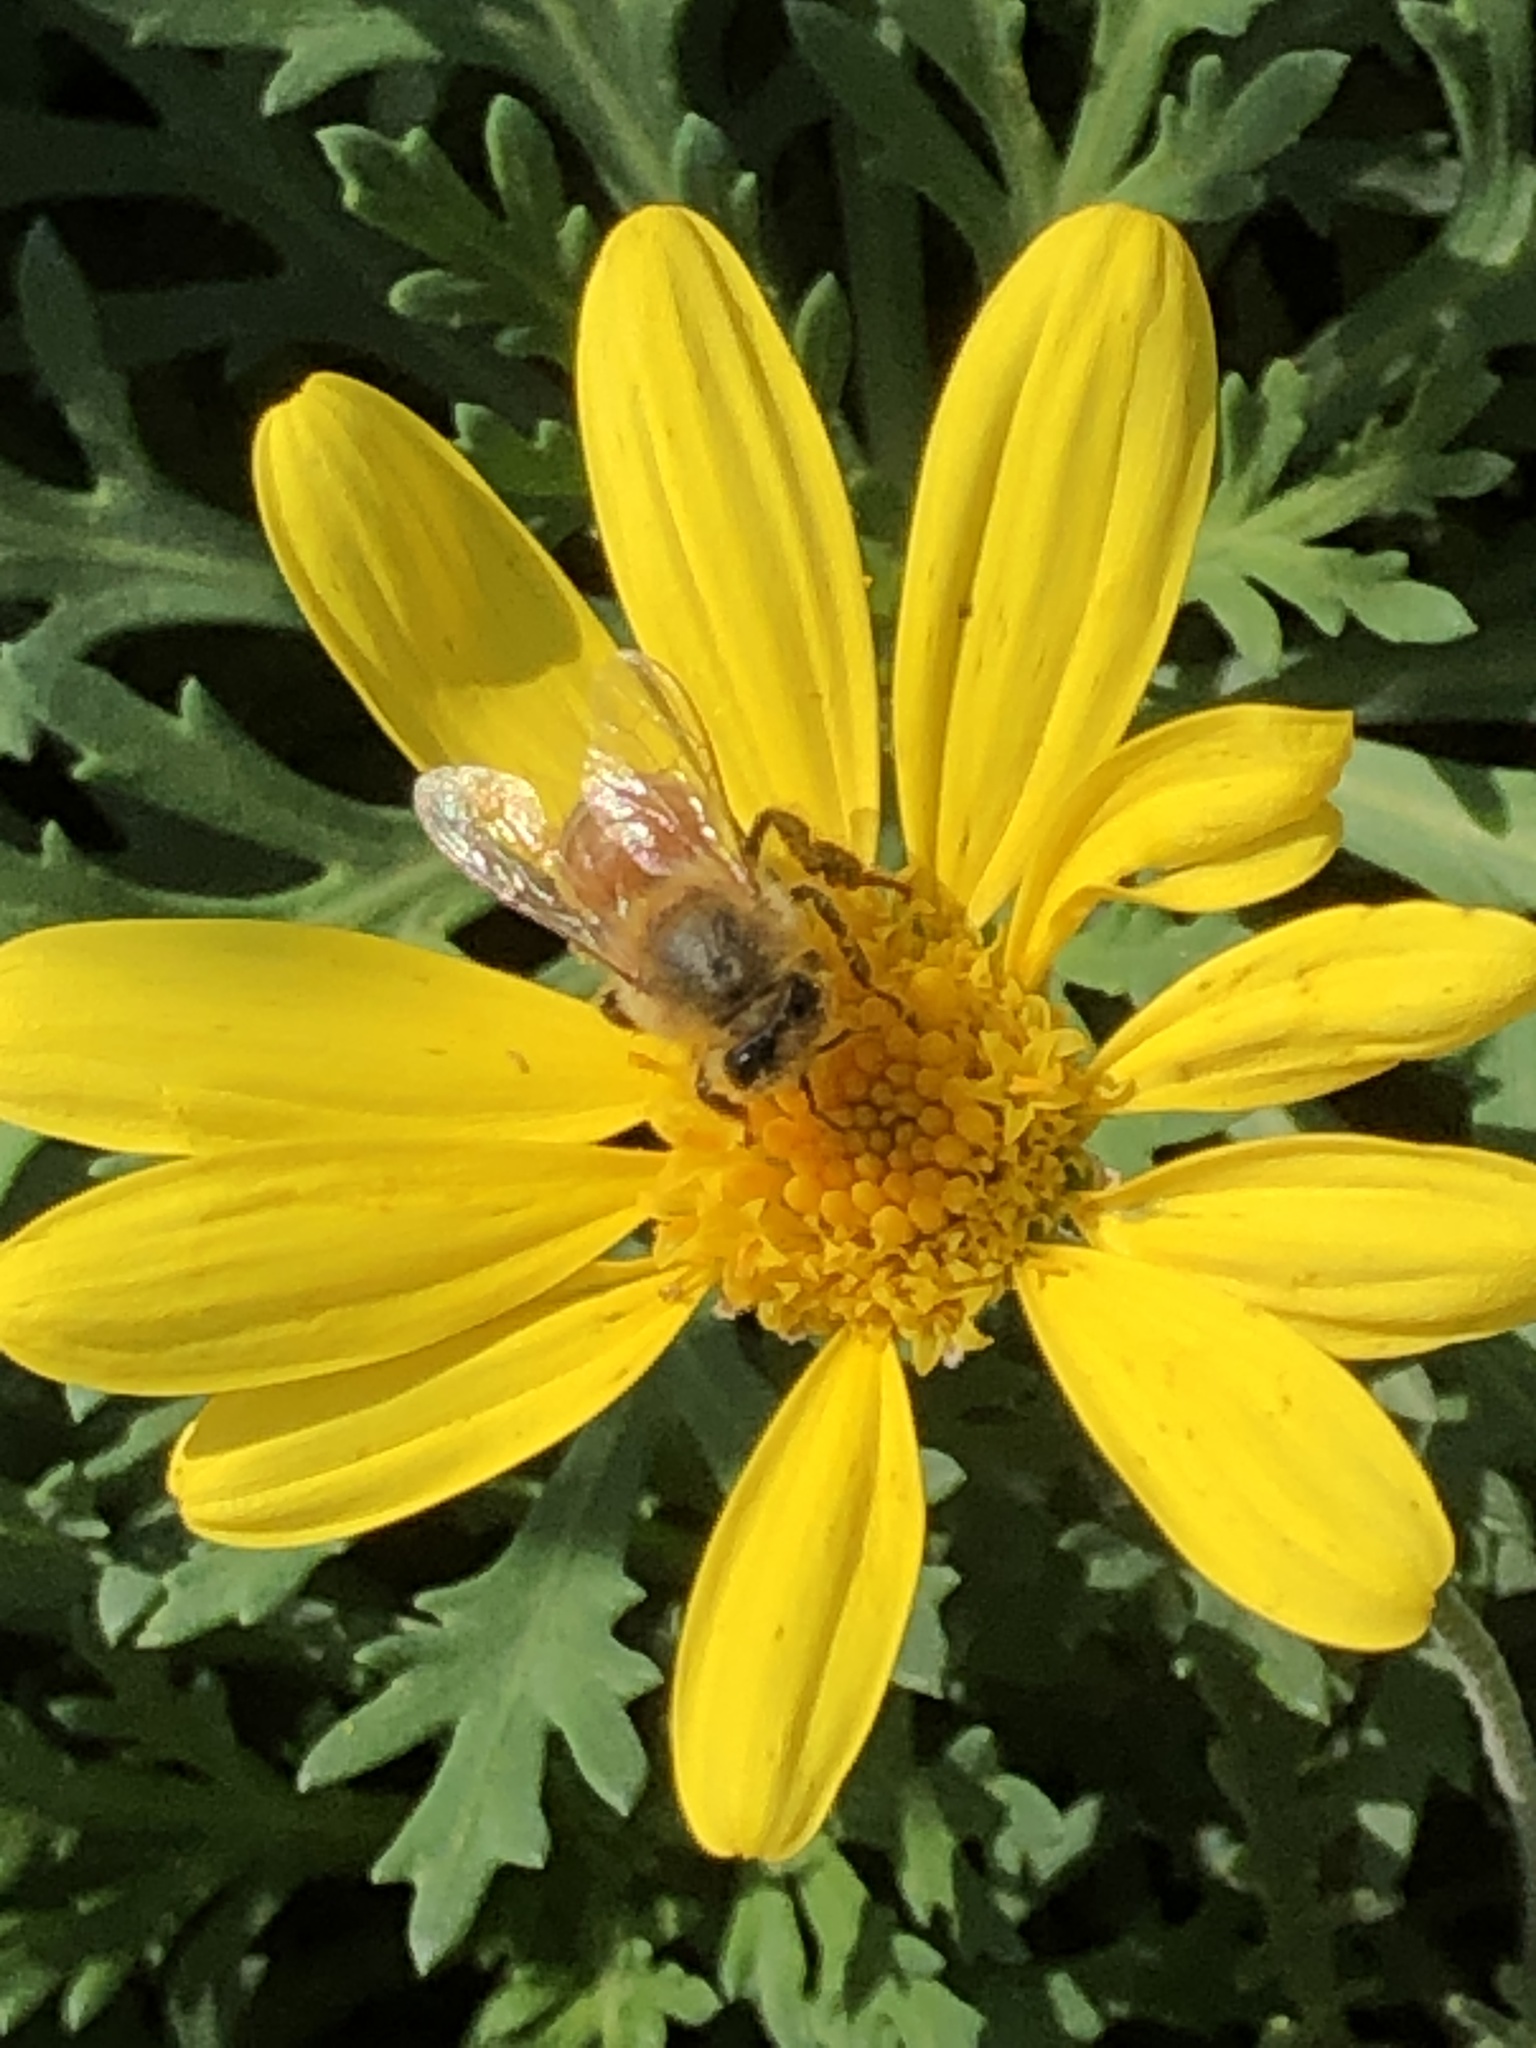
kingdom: Animalia
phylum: Arthropoda
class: Insecta
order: Hymenoptera
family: Apidae
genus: Apis
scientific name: Apis mellifera
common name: Honey bee
